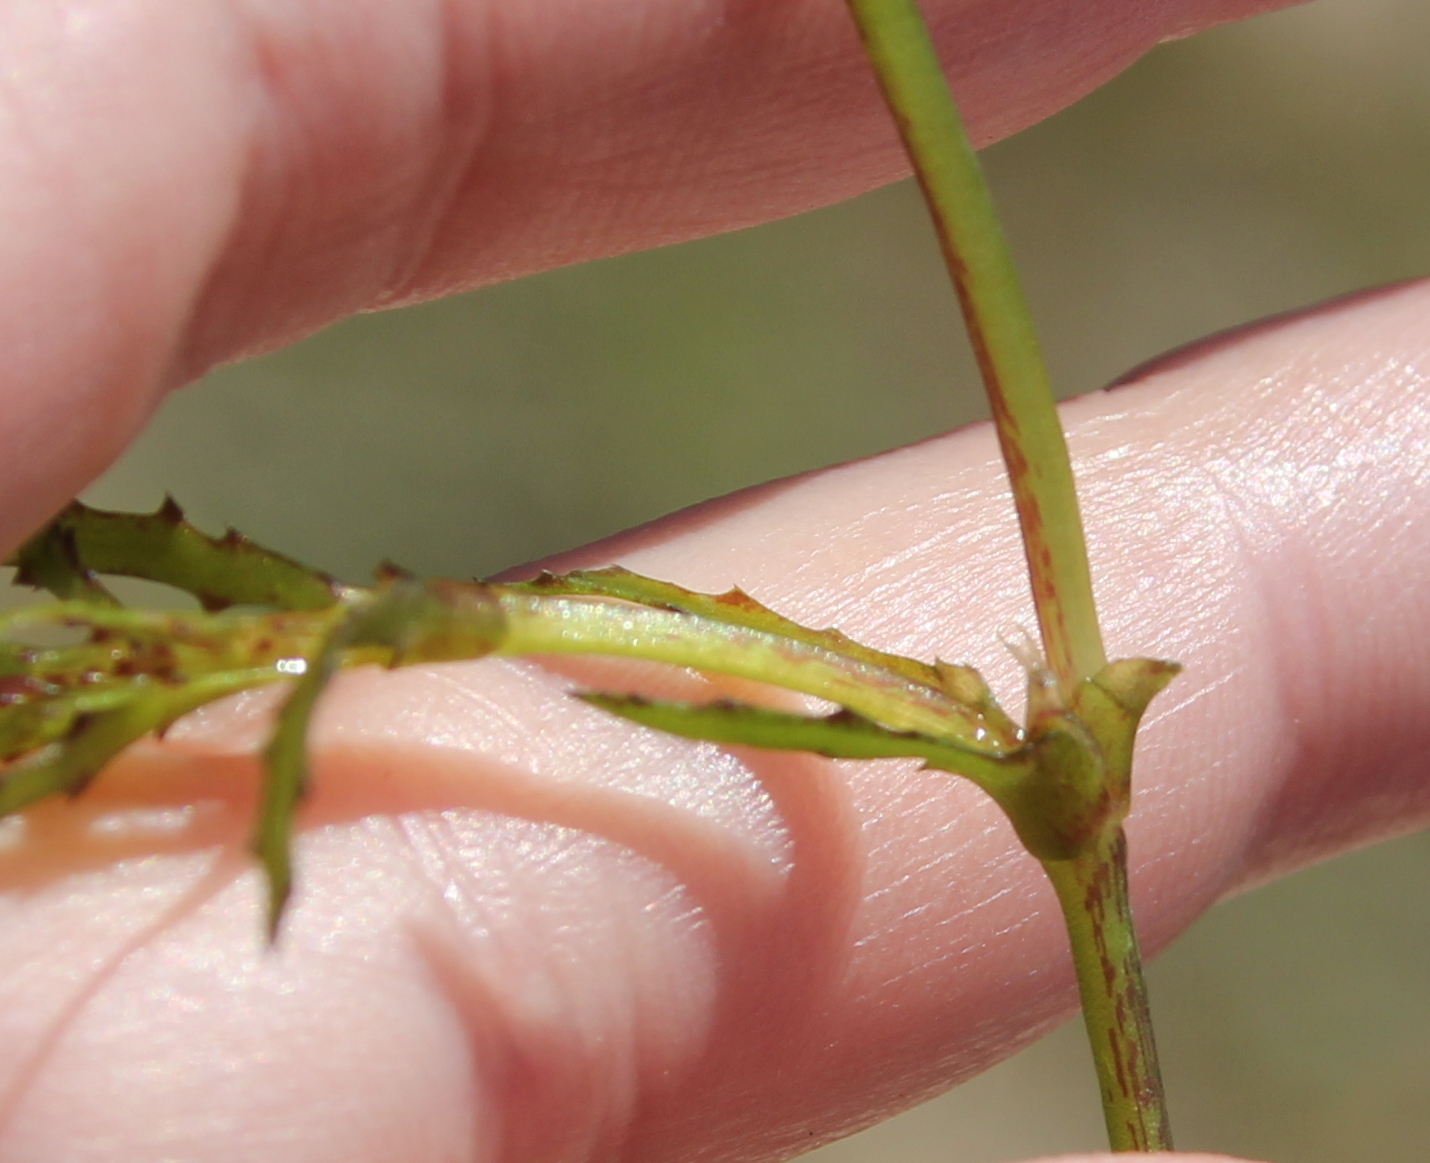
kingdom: Plantae
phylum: Tracheophyta
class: Liliopsida
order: Alismatales
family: Hydrocharitaceae
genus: Najas
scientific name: Najas marina
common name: Holly-leaved naiad
